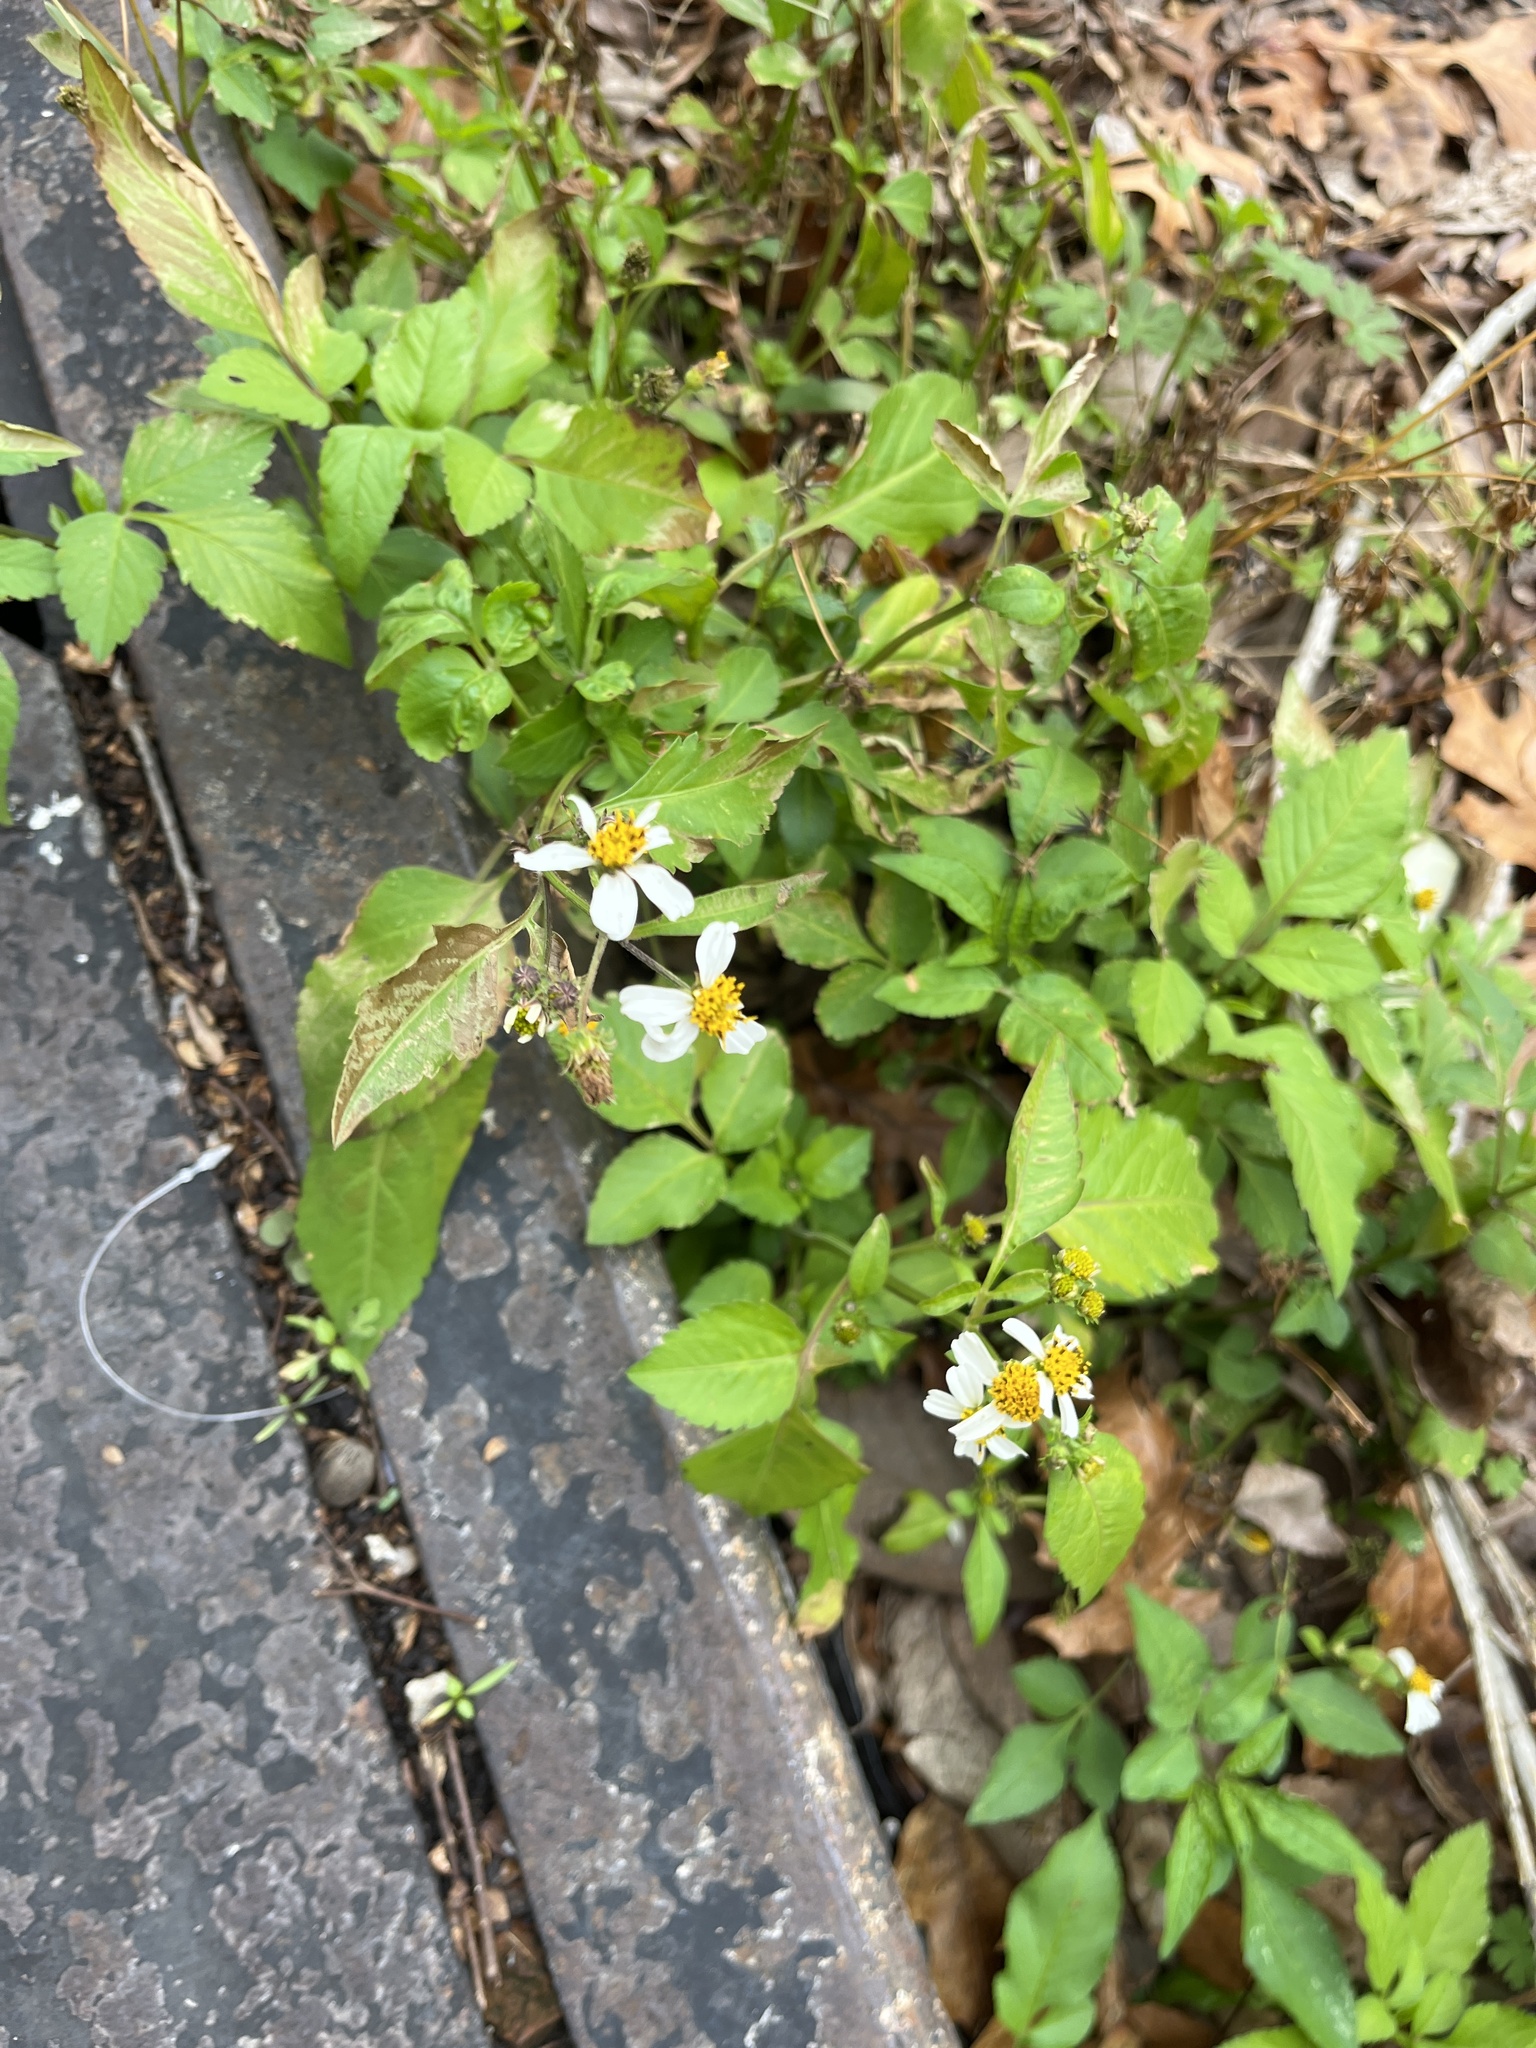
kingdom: Plantae
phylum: Tracheophyta
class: Magnoliopsida
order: Asterales
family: Asteraceae
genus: Bidens
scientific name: Bidens alba
